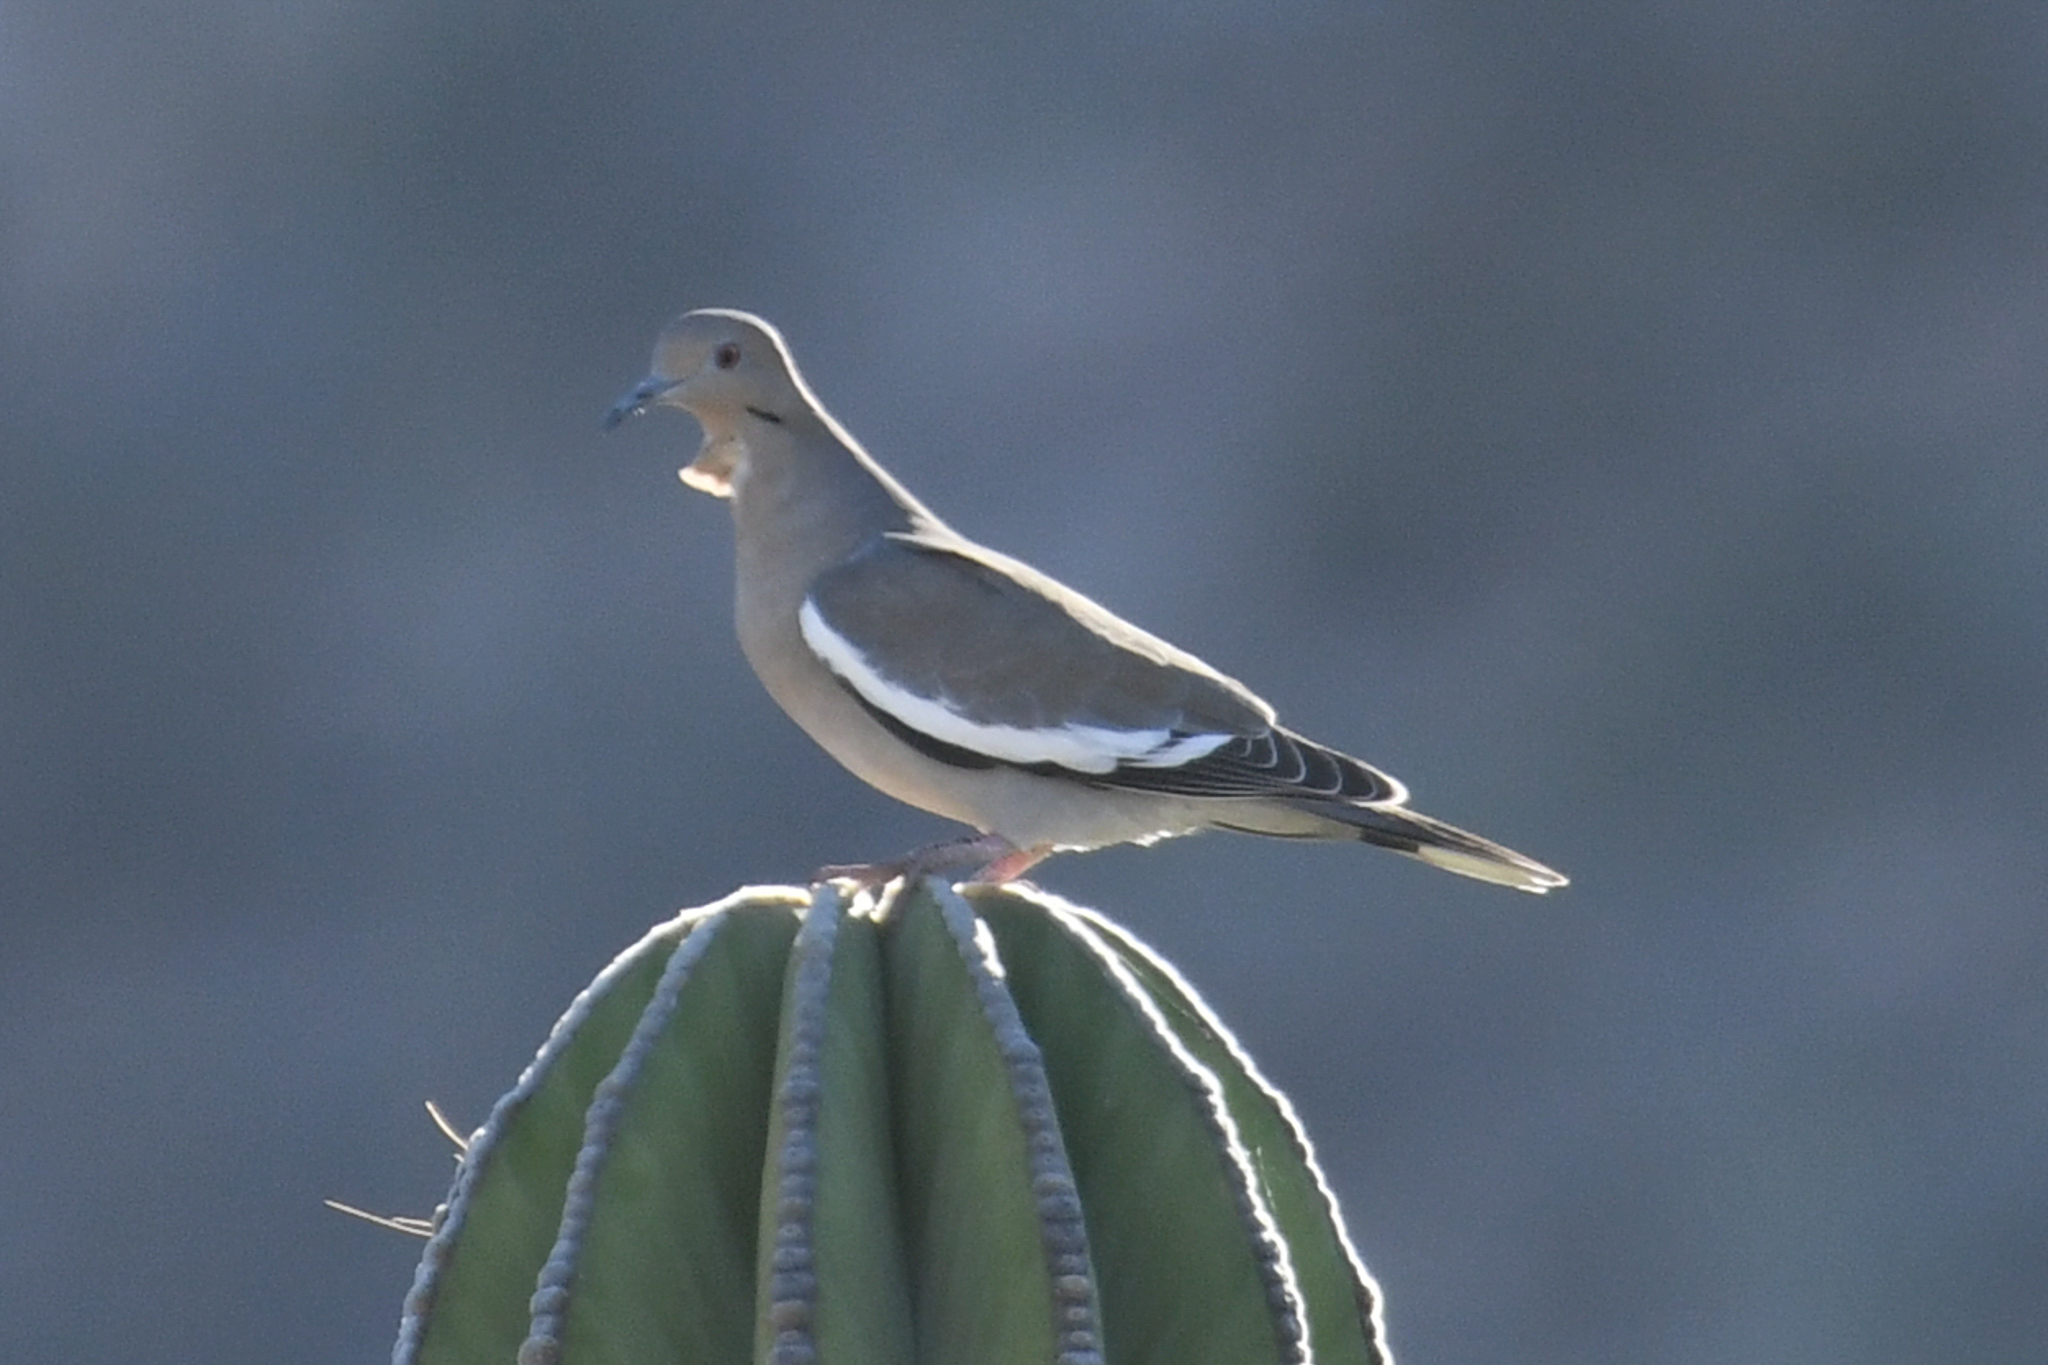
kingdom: Animalia
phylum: Chordata
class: Aves
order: Columbiformes
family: Columbidae
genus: Zenaida
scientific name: Zenaida asiatica
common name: White-winged dove
